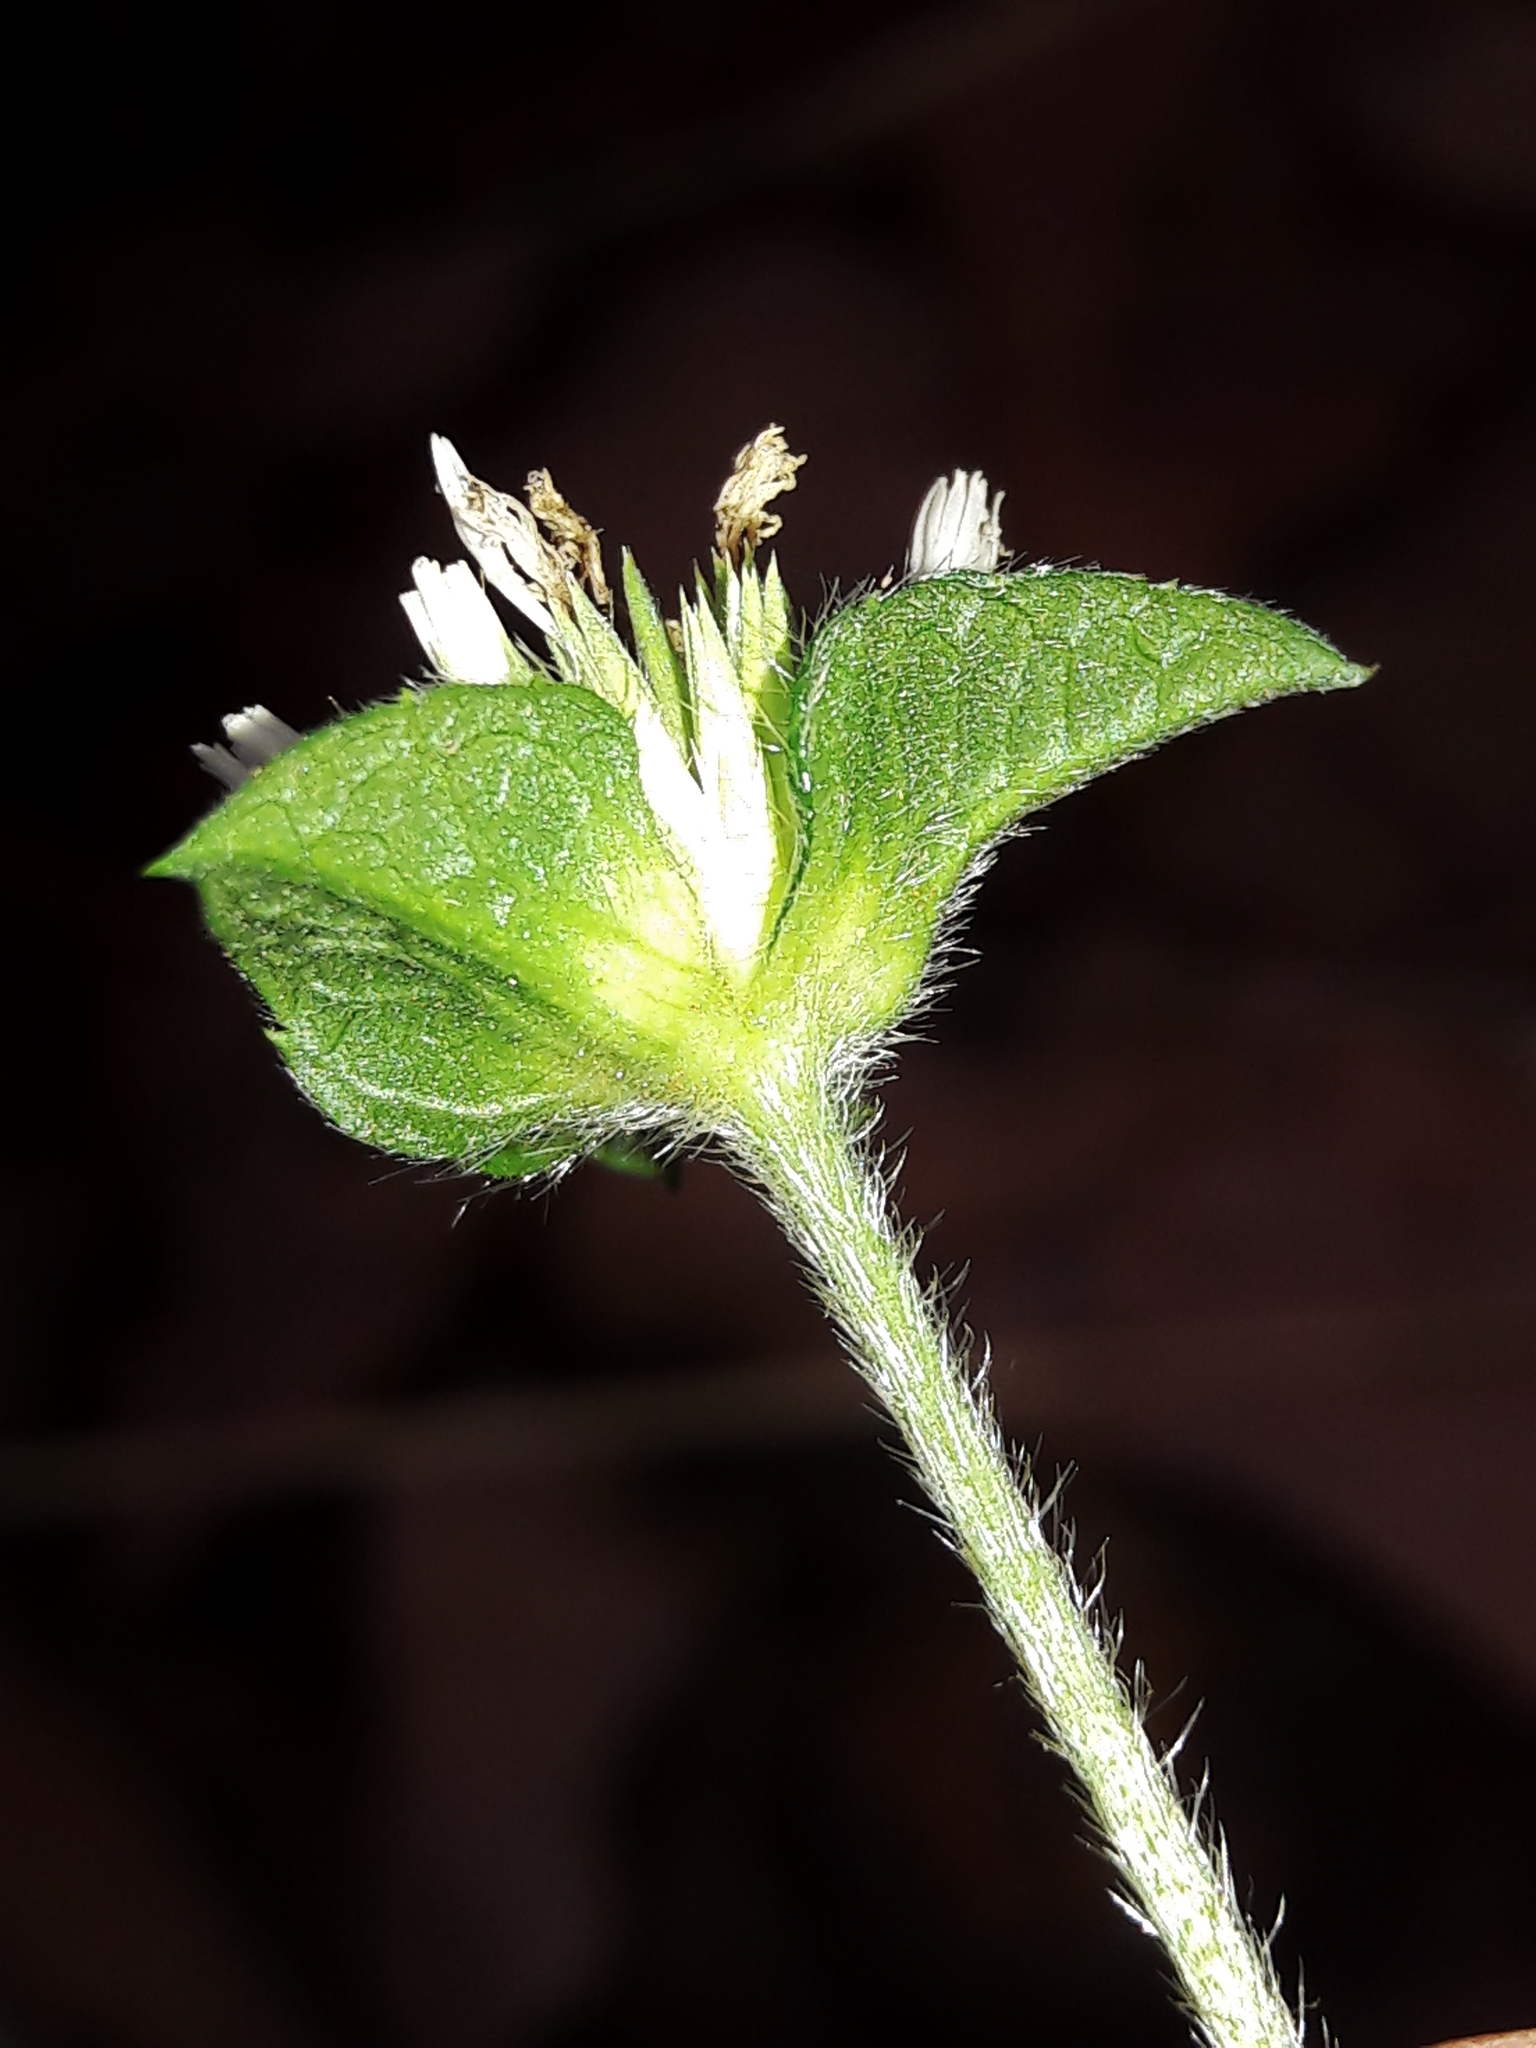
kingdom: Plantae
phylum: Tracheophyta
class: Magnoliopsida
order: Asterales
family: Asteraceae
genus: Elephantopus
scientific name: Elephantopus mollis
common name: Soft elephantsfoot
